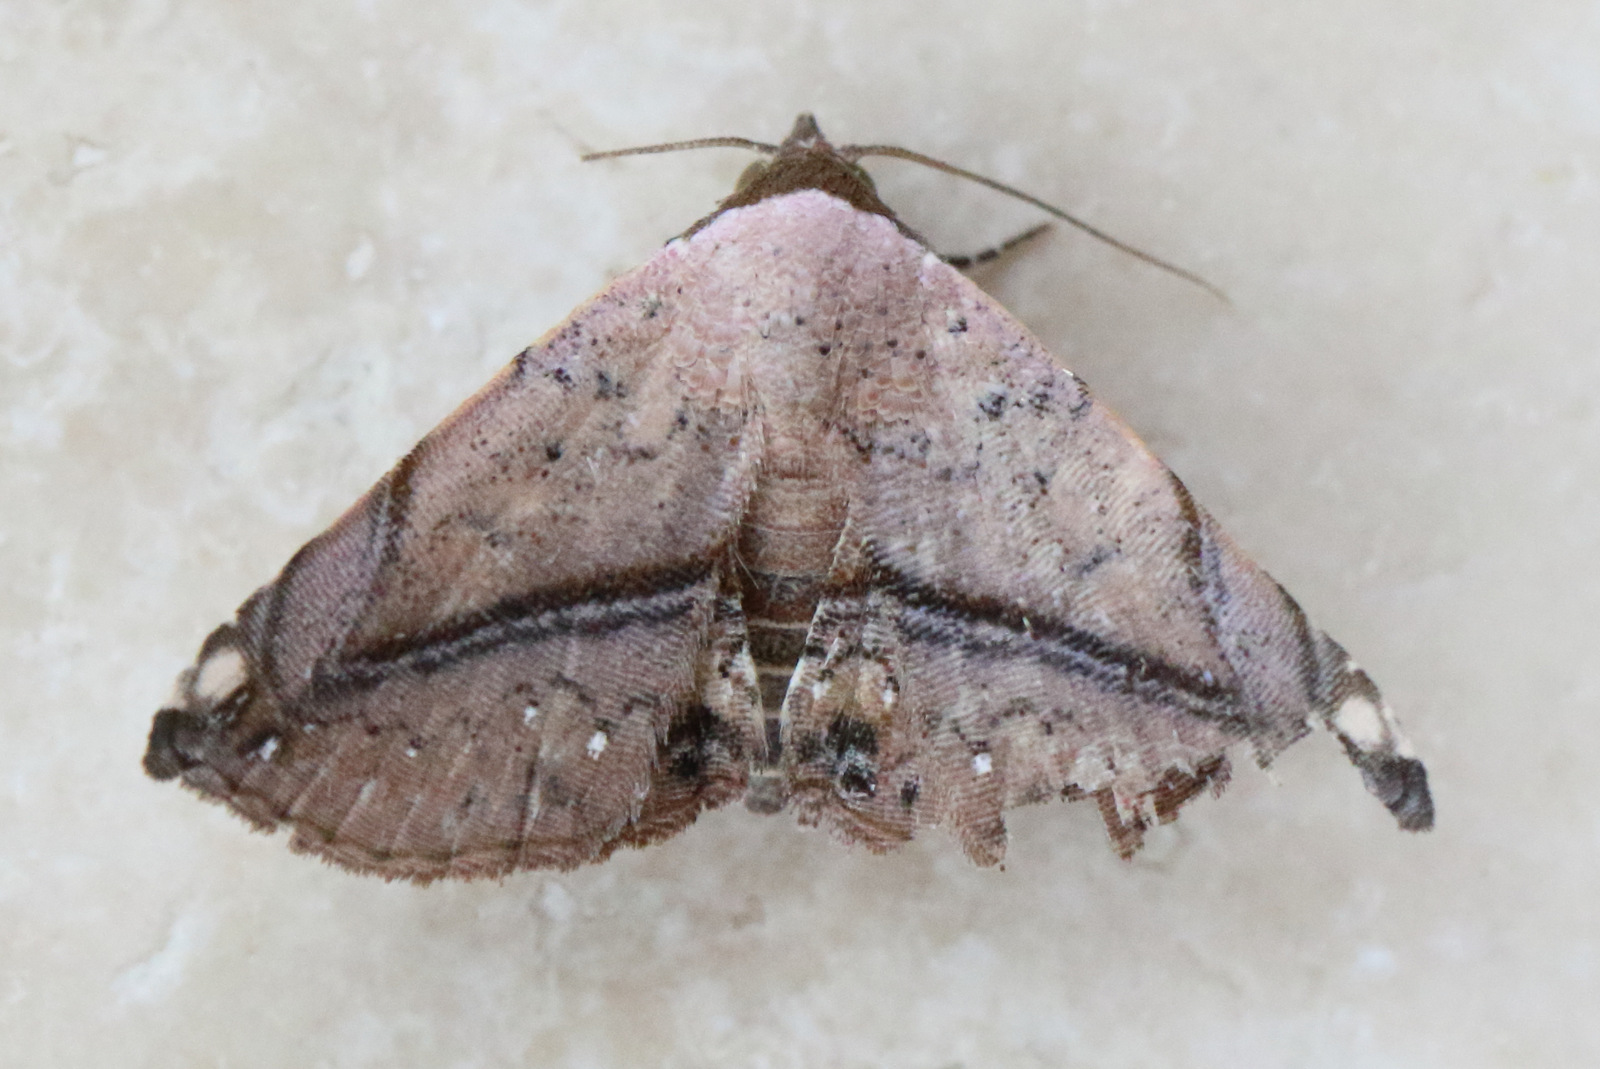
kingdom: Animalia
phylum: Arthropoda
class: Insecta
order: Lepidoptera
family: Noctuidae
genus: Eublemma
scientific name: Eublemma abrupta
